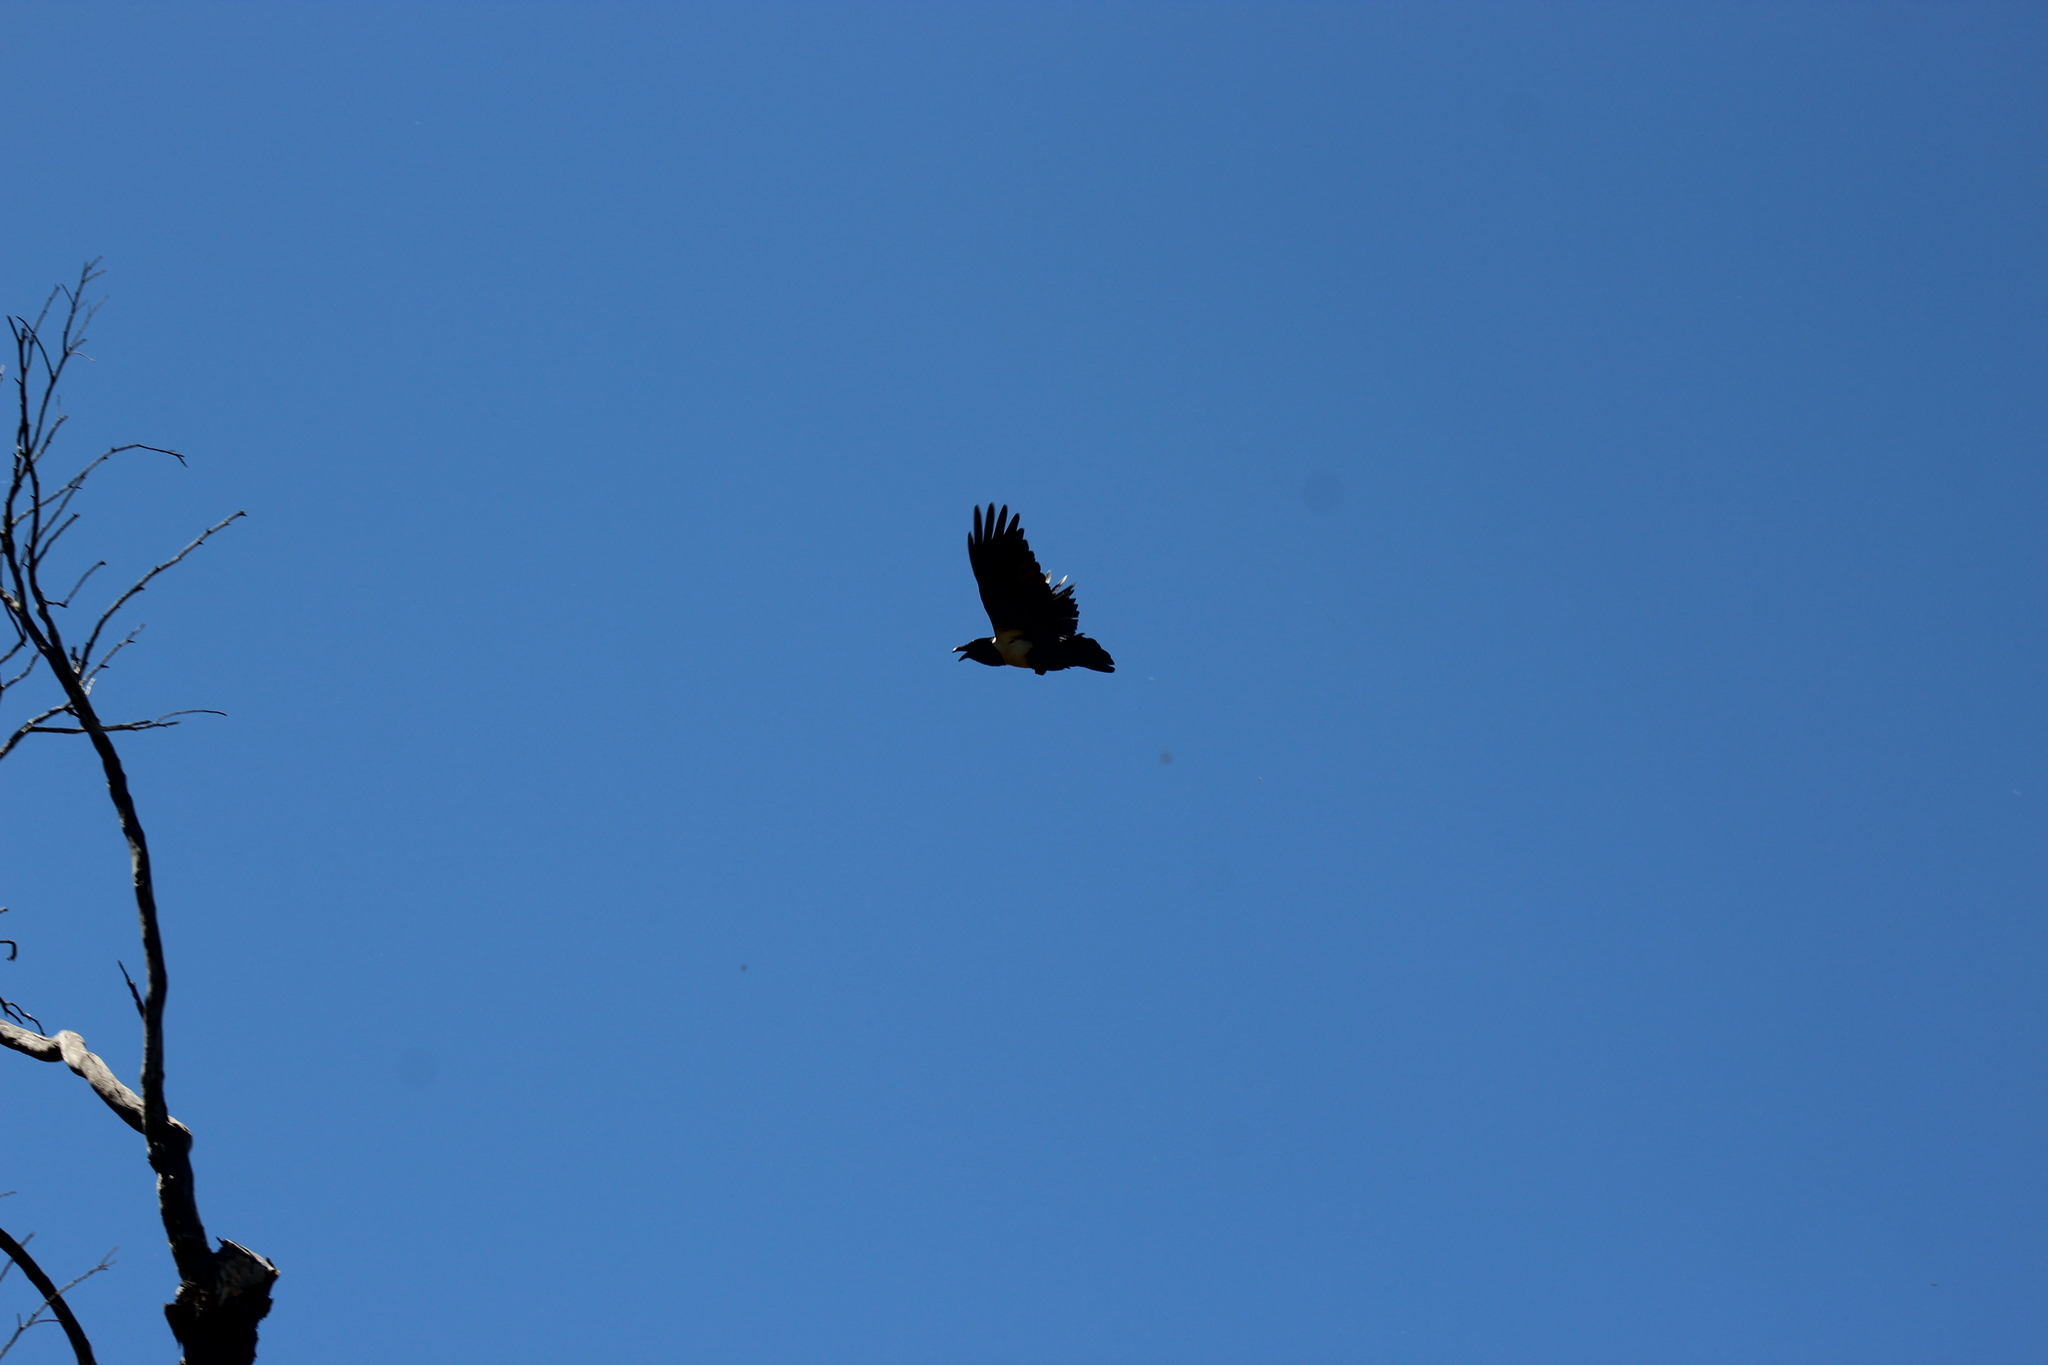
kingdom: Animalia
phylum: Chordata
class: Aves
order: Passeriformes
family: Corvidae
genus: Corvus
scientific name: Corvus albus
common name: Pied crow
